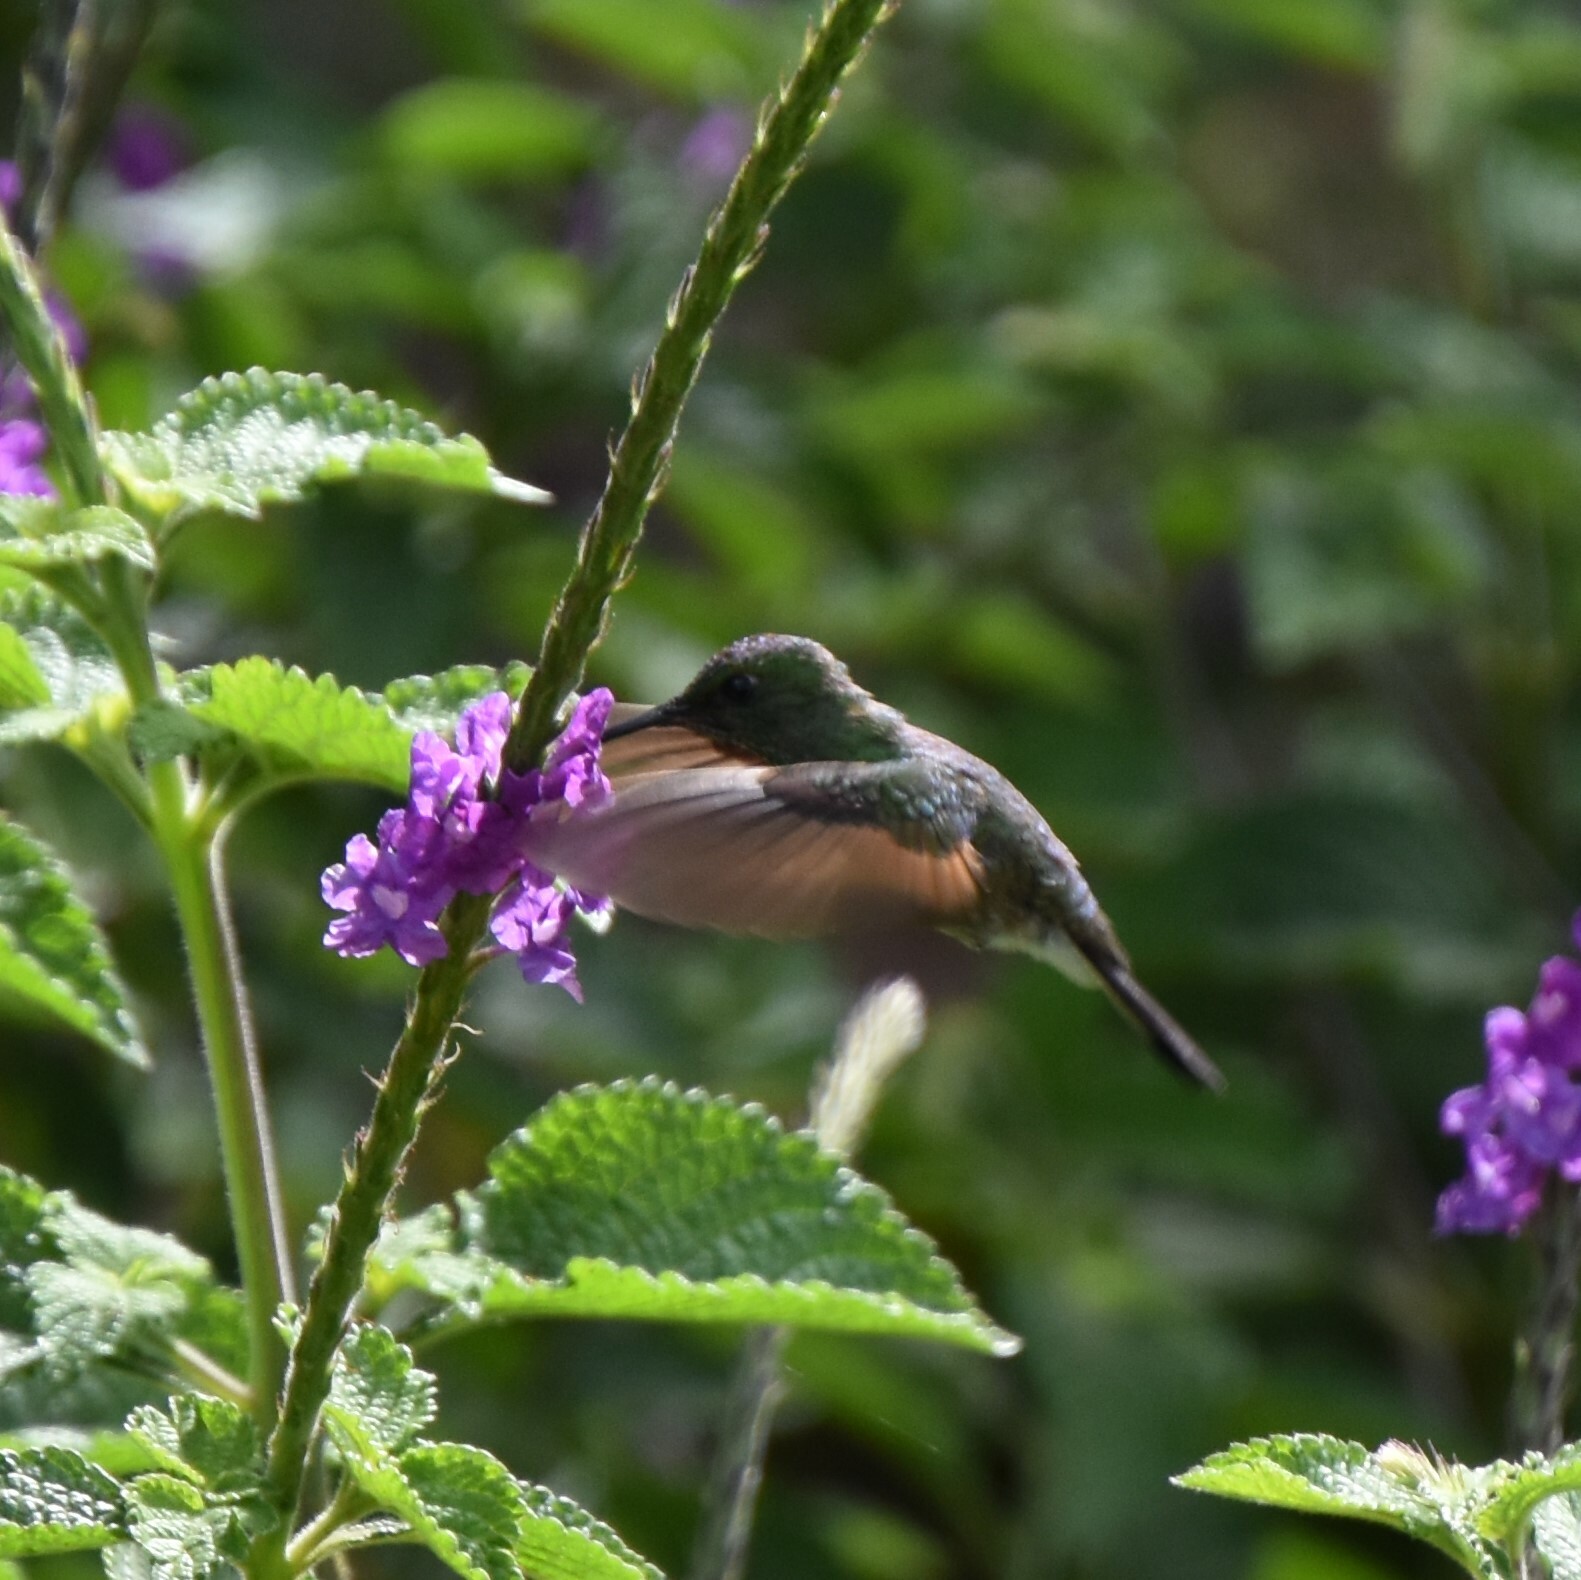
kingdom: Animalia
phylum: Chordata
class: Aves
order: Apodiformes
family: Trochilidae
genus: Eupherusa
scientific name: Eupherusa eximia
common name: Stripe-tailed hummingbird
